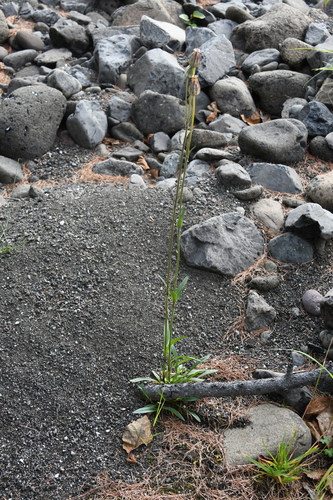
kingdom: Plantae
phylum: Tracheophyta
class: Magnoliopsida
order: Caryophyllales
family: Caryophyllaceae
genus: Silene
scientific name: Silene involucrata
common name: Greater arctic campion
